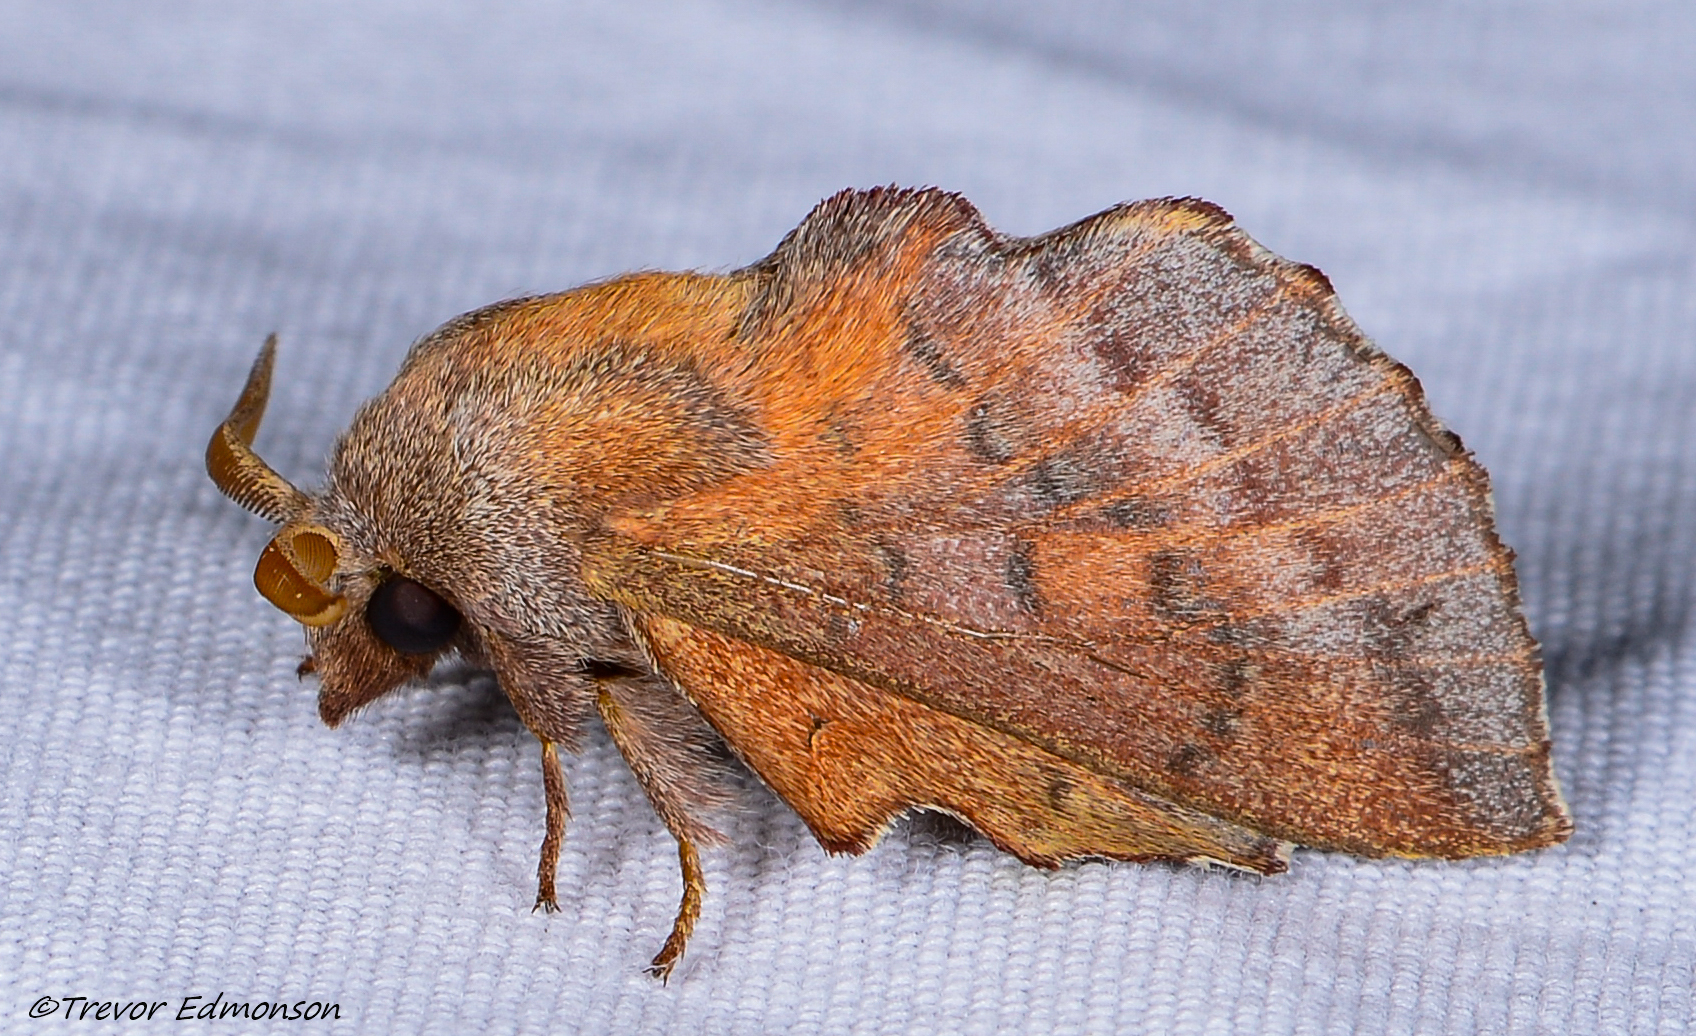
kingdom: Animalia
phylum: Arthropoda
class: Insecta
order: Lepidoptera
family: Lasiocampidae
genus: Phyllodesma
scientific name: Phyllodesma americana
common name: American lappet moth
